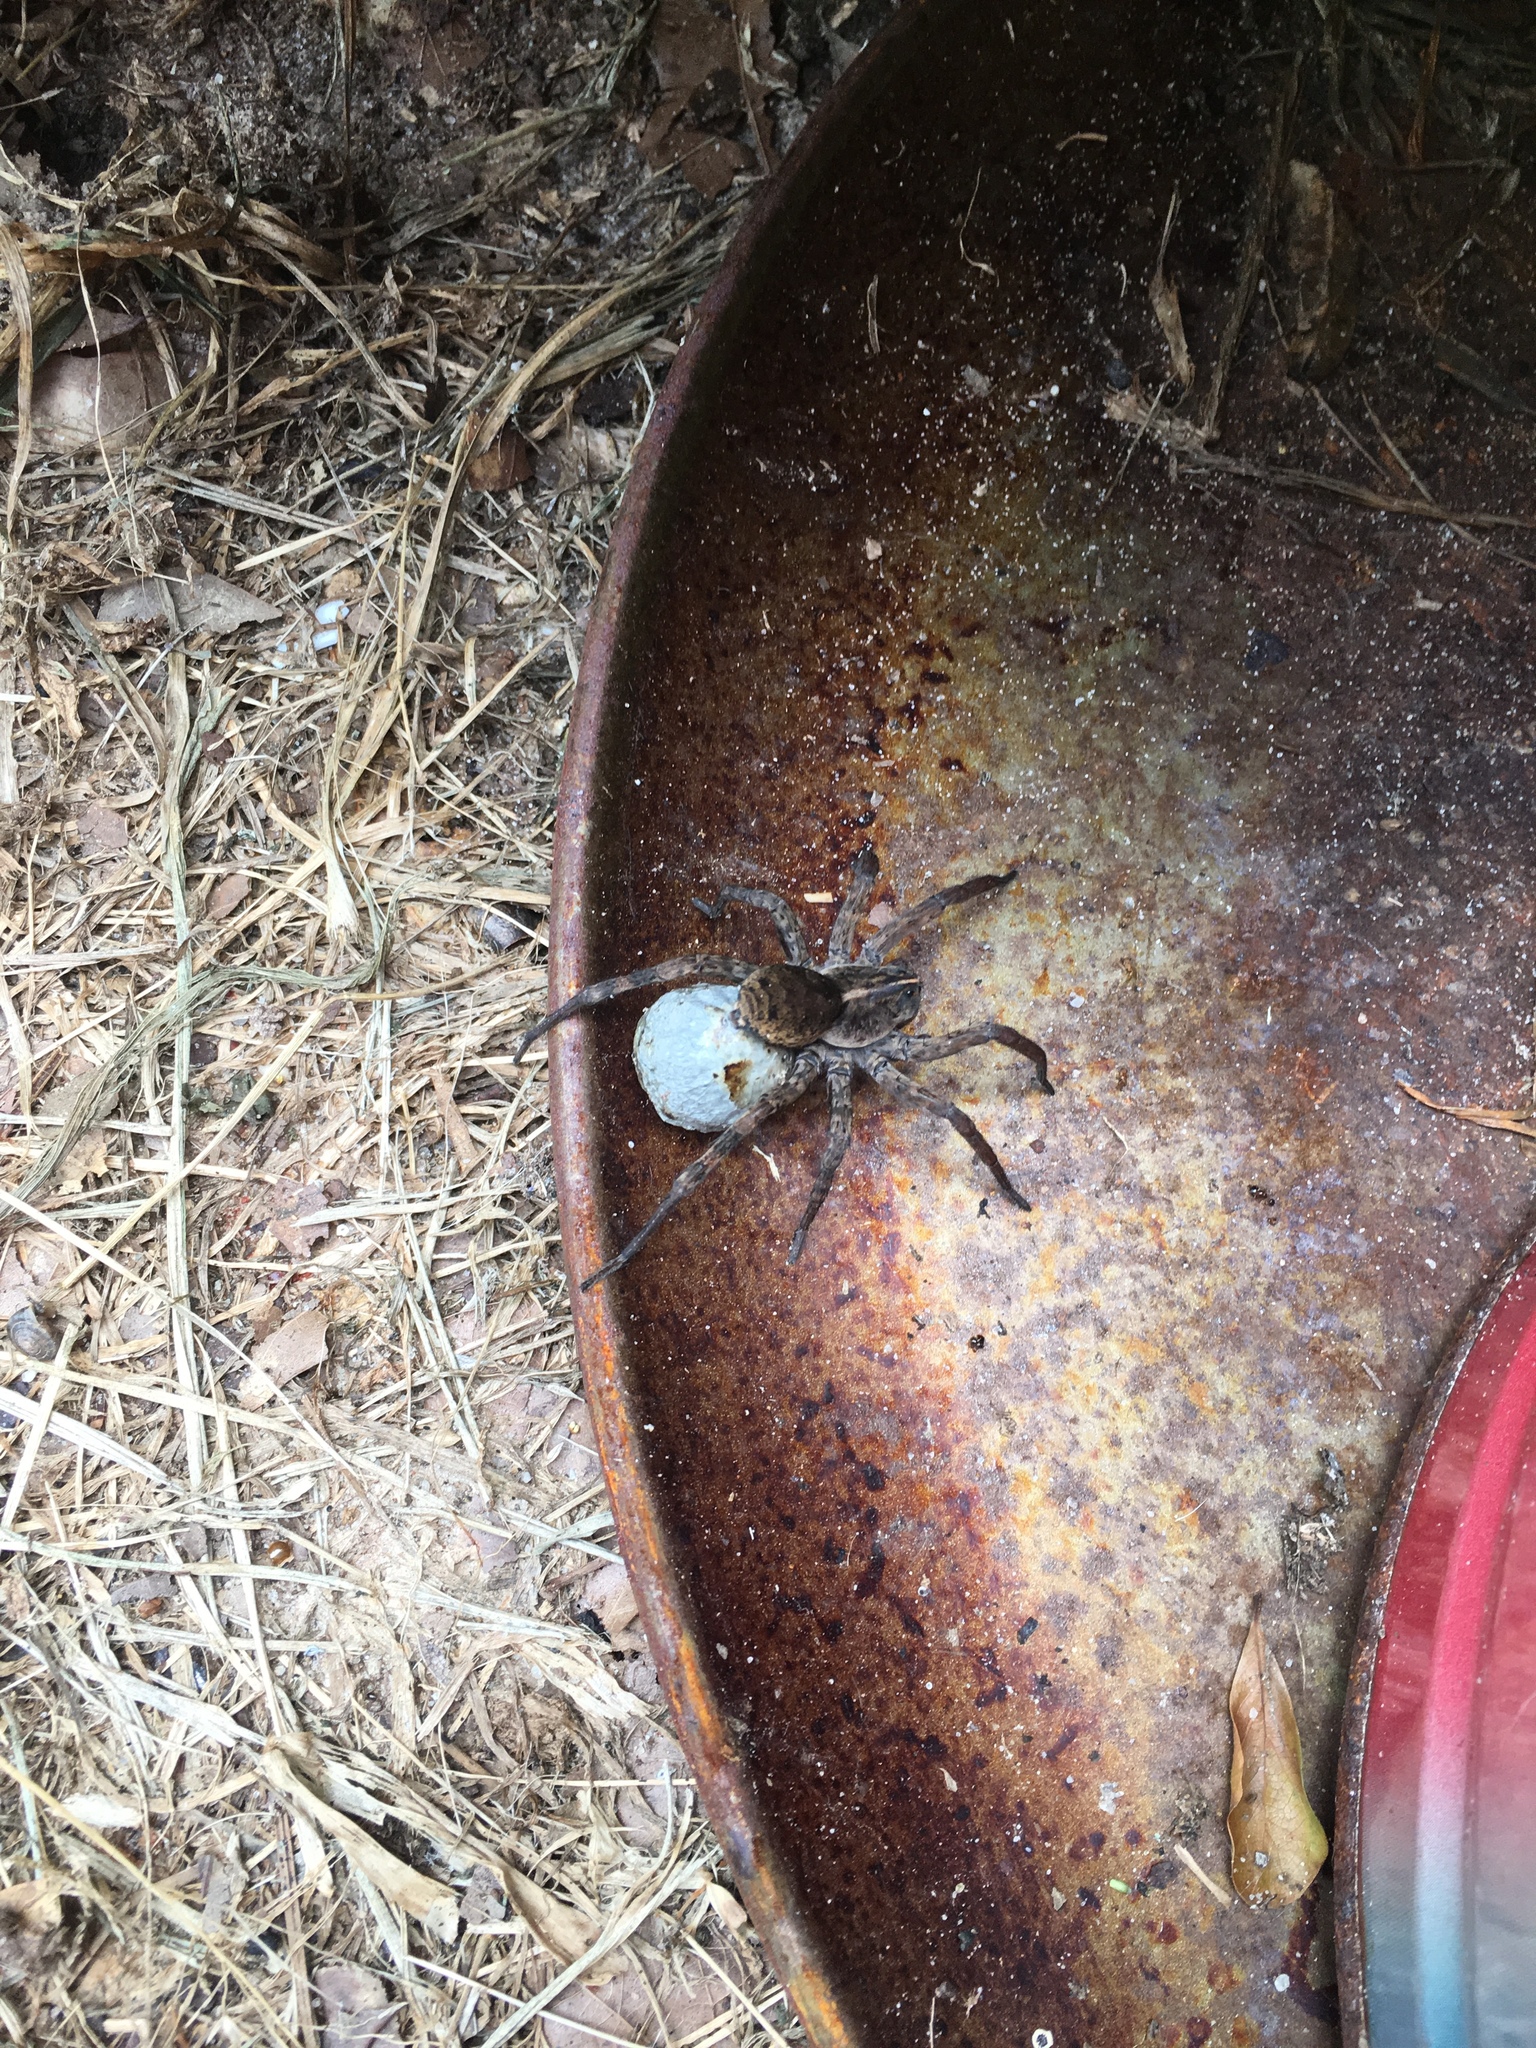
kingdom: Animalia
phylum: Arthropoda
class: Arachnida
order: Araneae
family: Lycosidae
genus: Tigrosa
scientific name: Tigrosa georgicola
